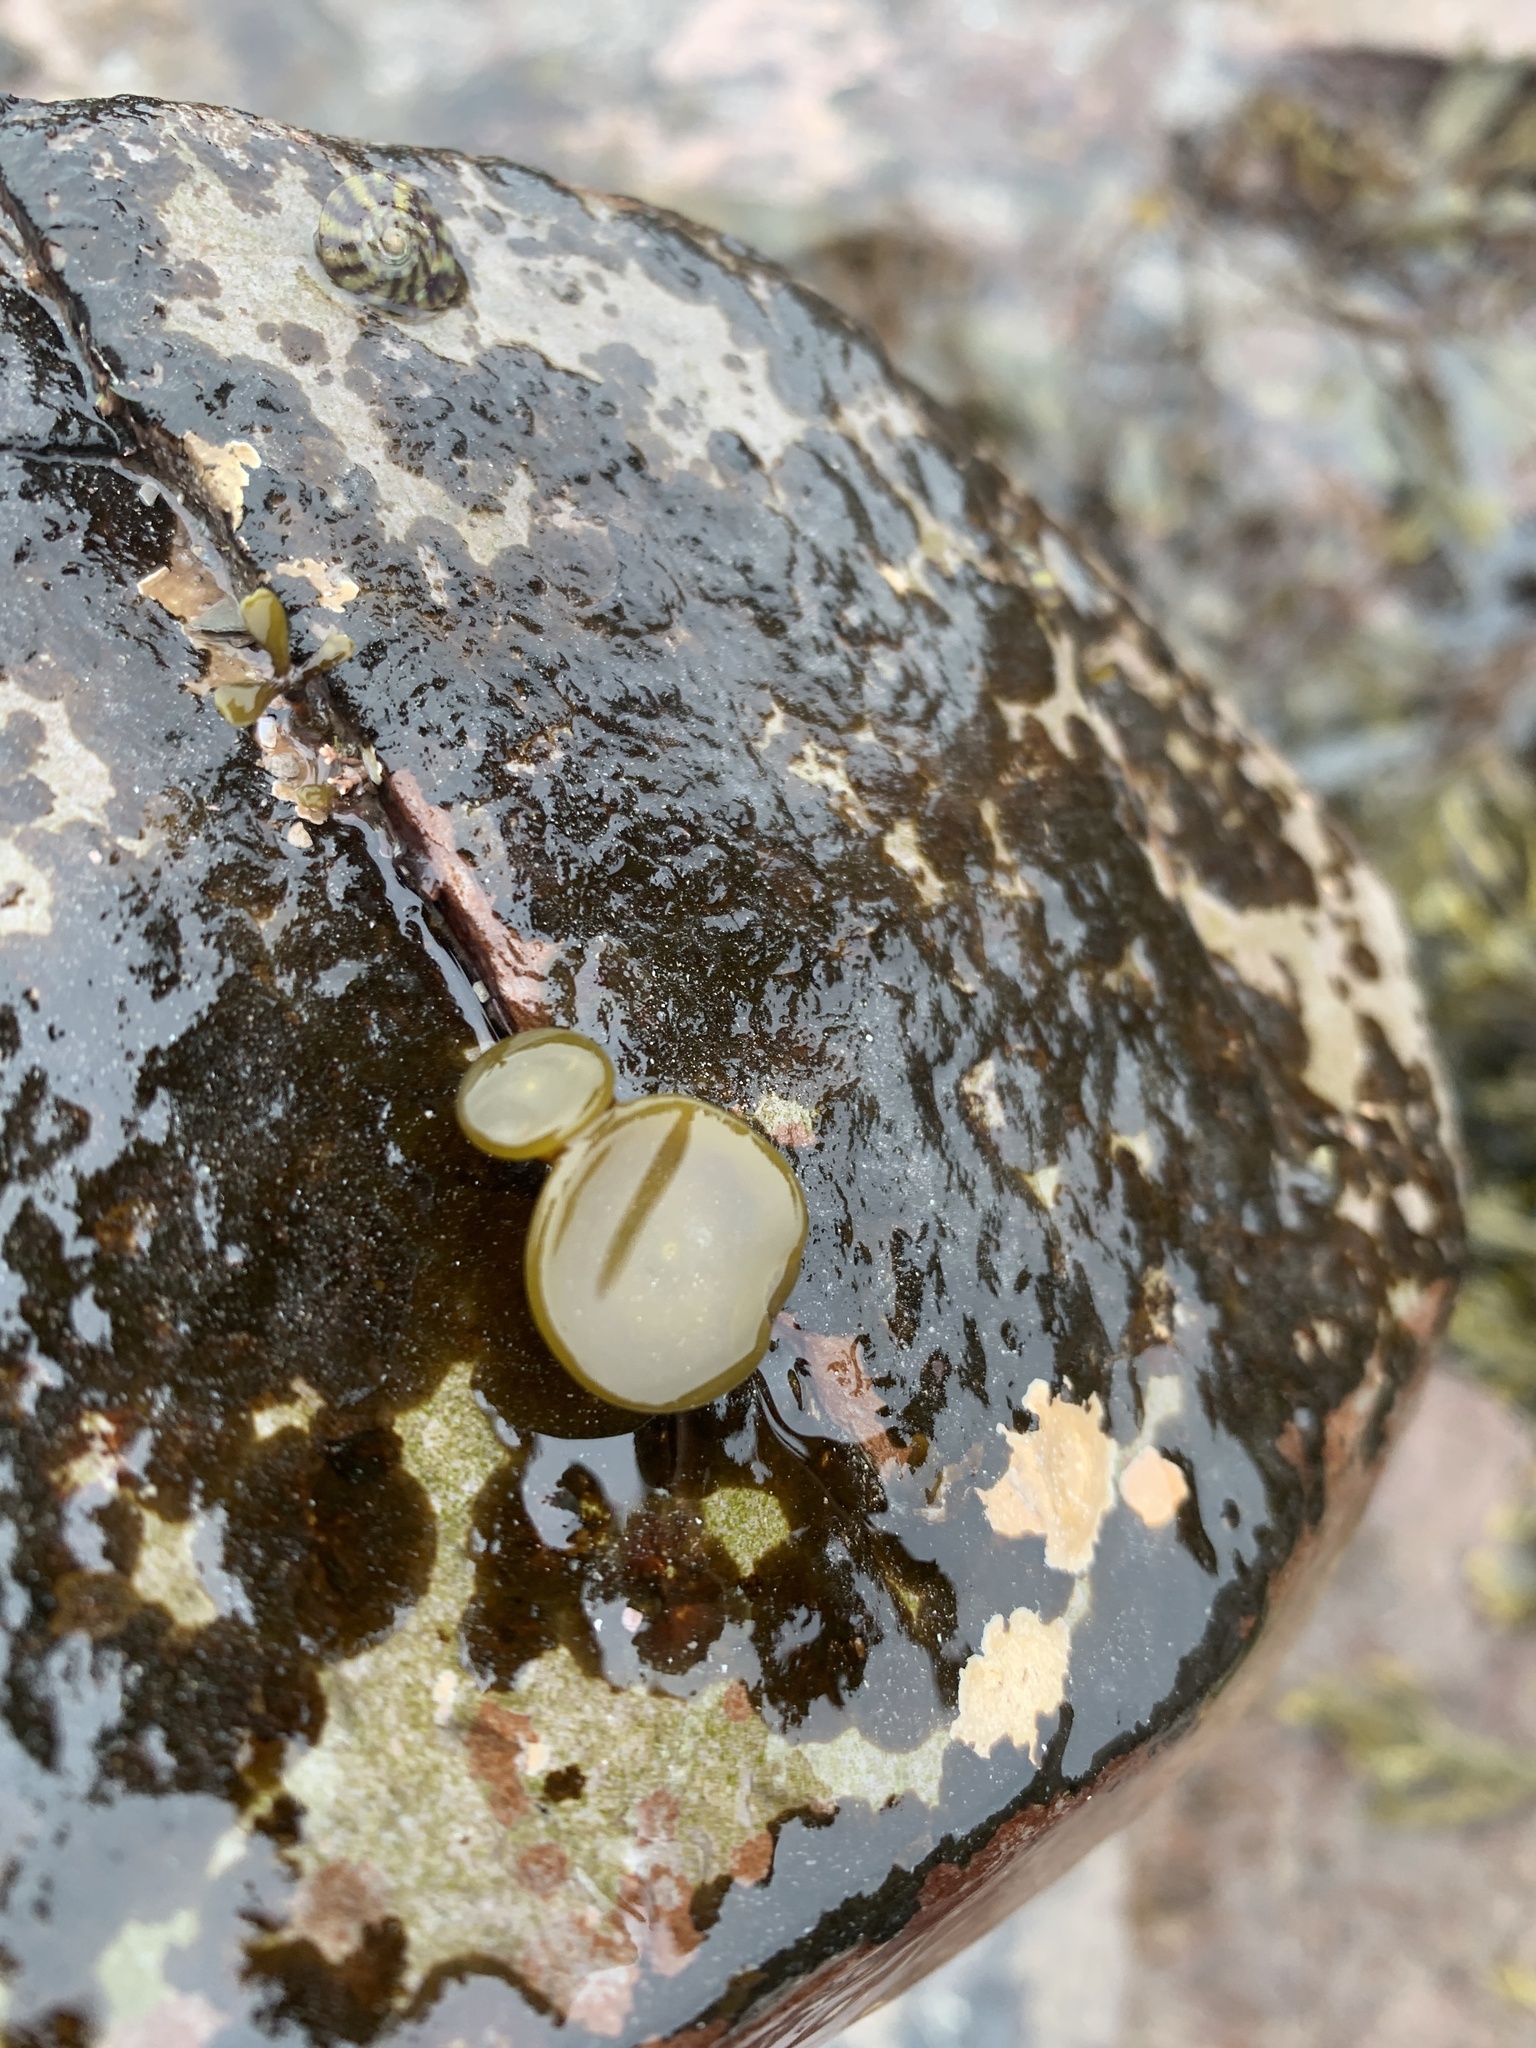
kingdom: Chromista
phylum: Ochrophyta
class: Phaeophyceae
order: Fucales
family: Himanthaliaceae
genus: Himanthalia
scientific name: Himanthalia elongata
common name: Sea-thong
